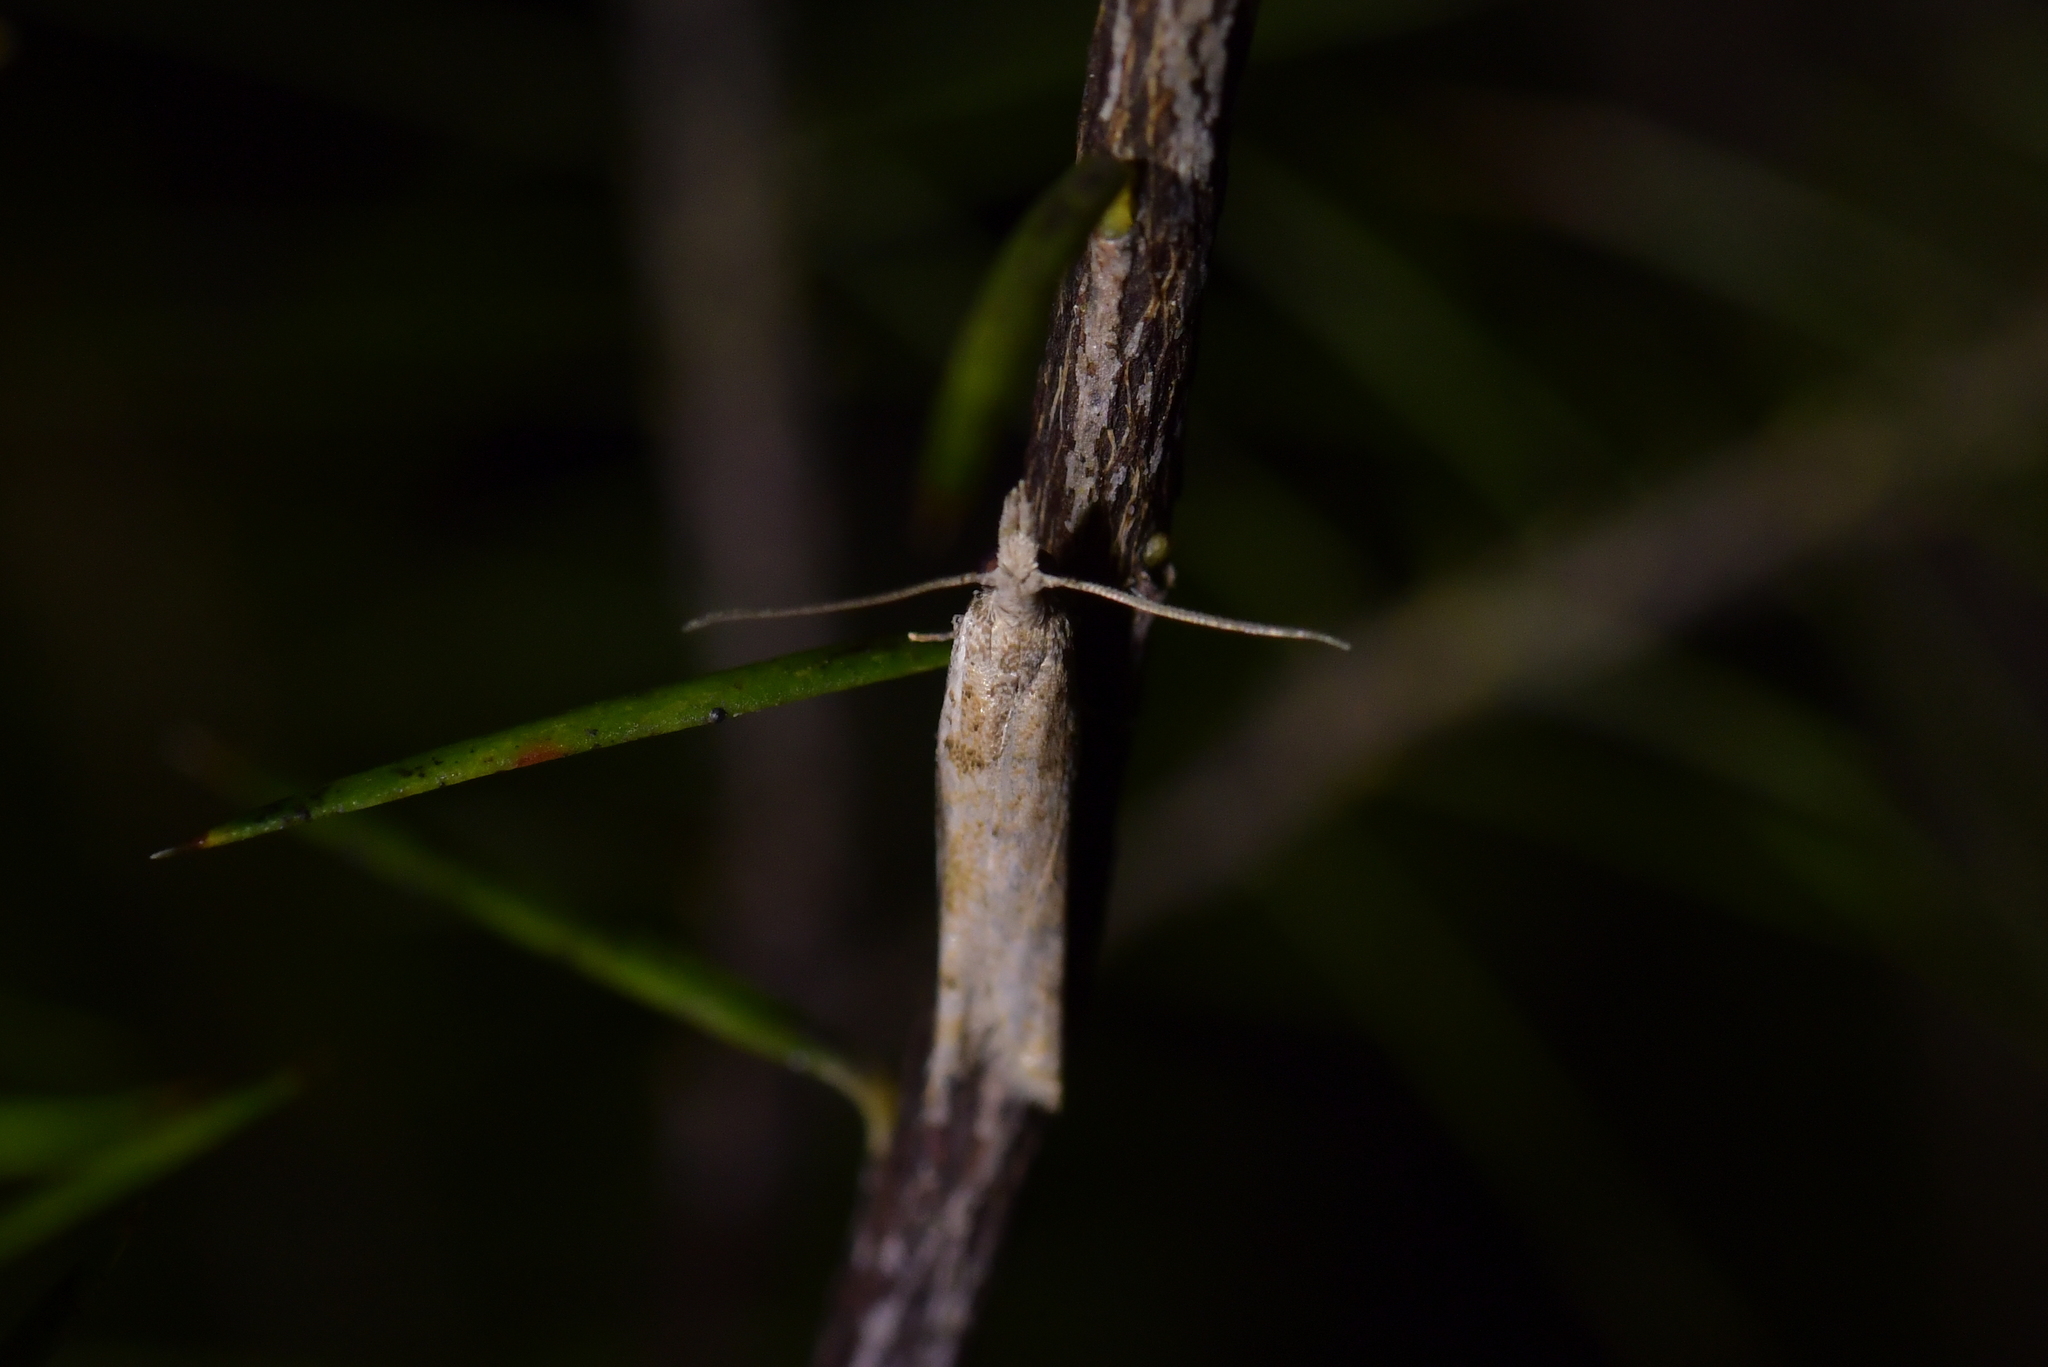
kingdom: Animalia
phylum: Arthropoda
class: Insecta
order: Lepidoptera
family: Tortricidae
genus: Holocola
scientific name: Holocola
